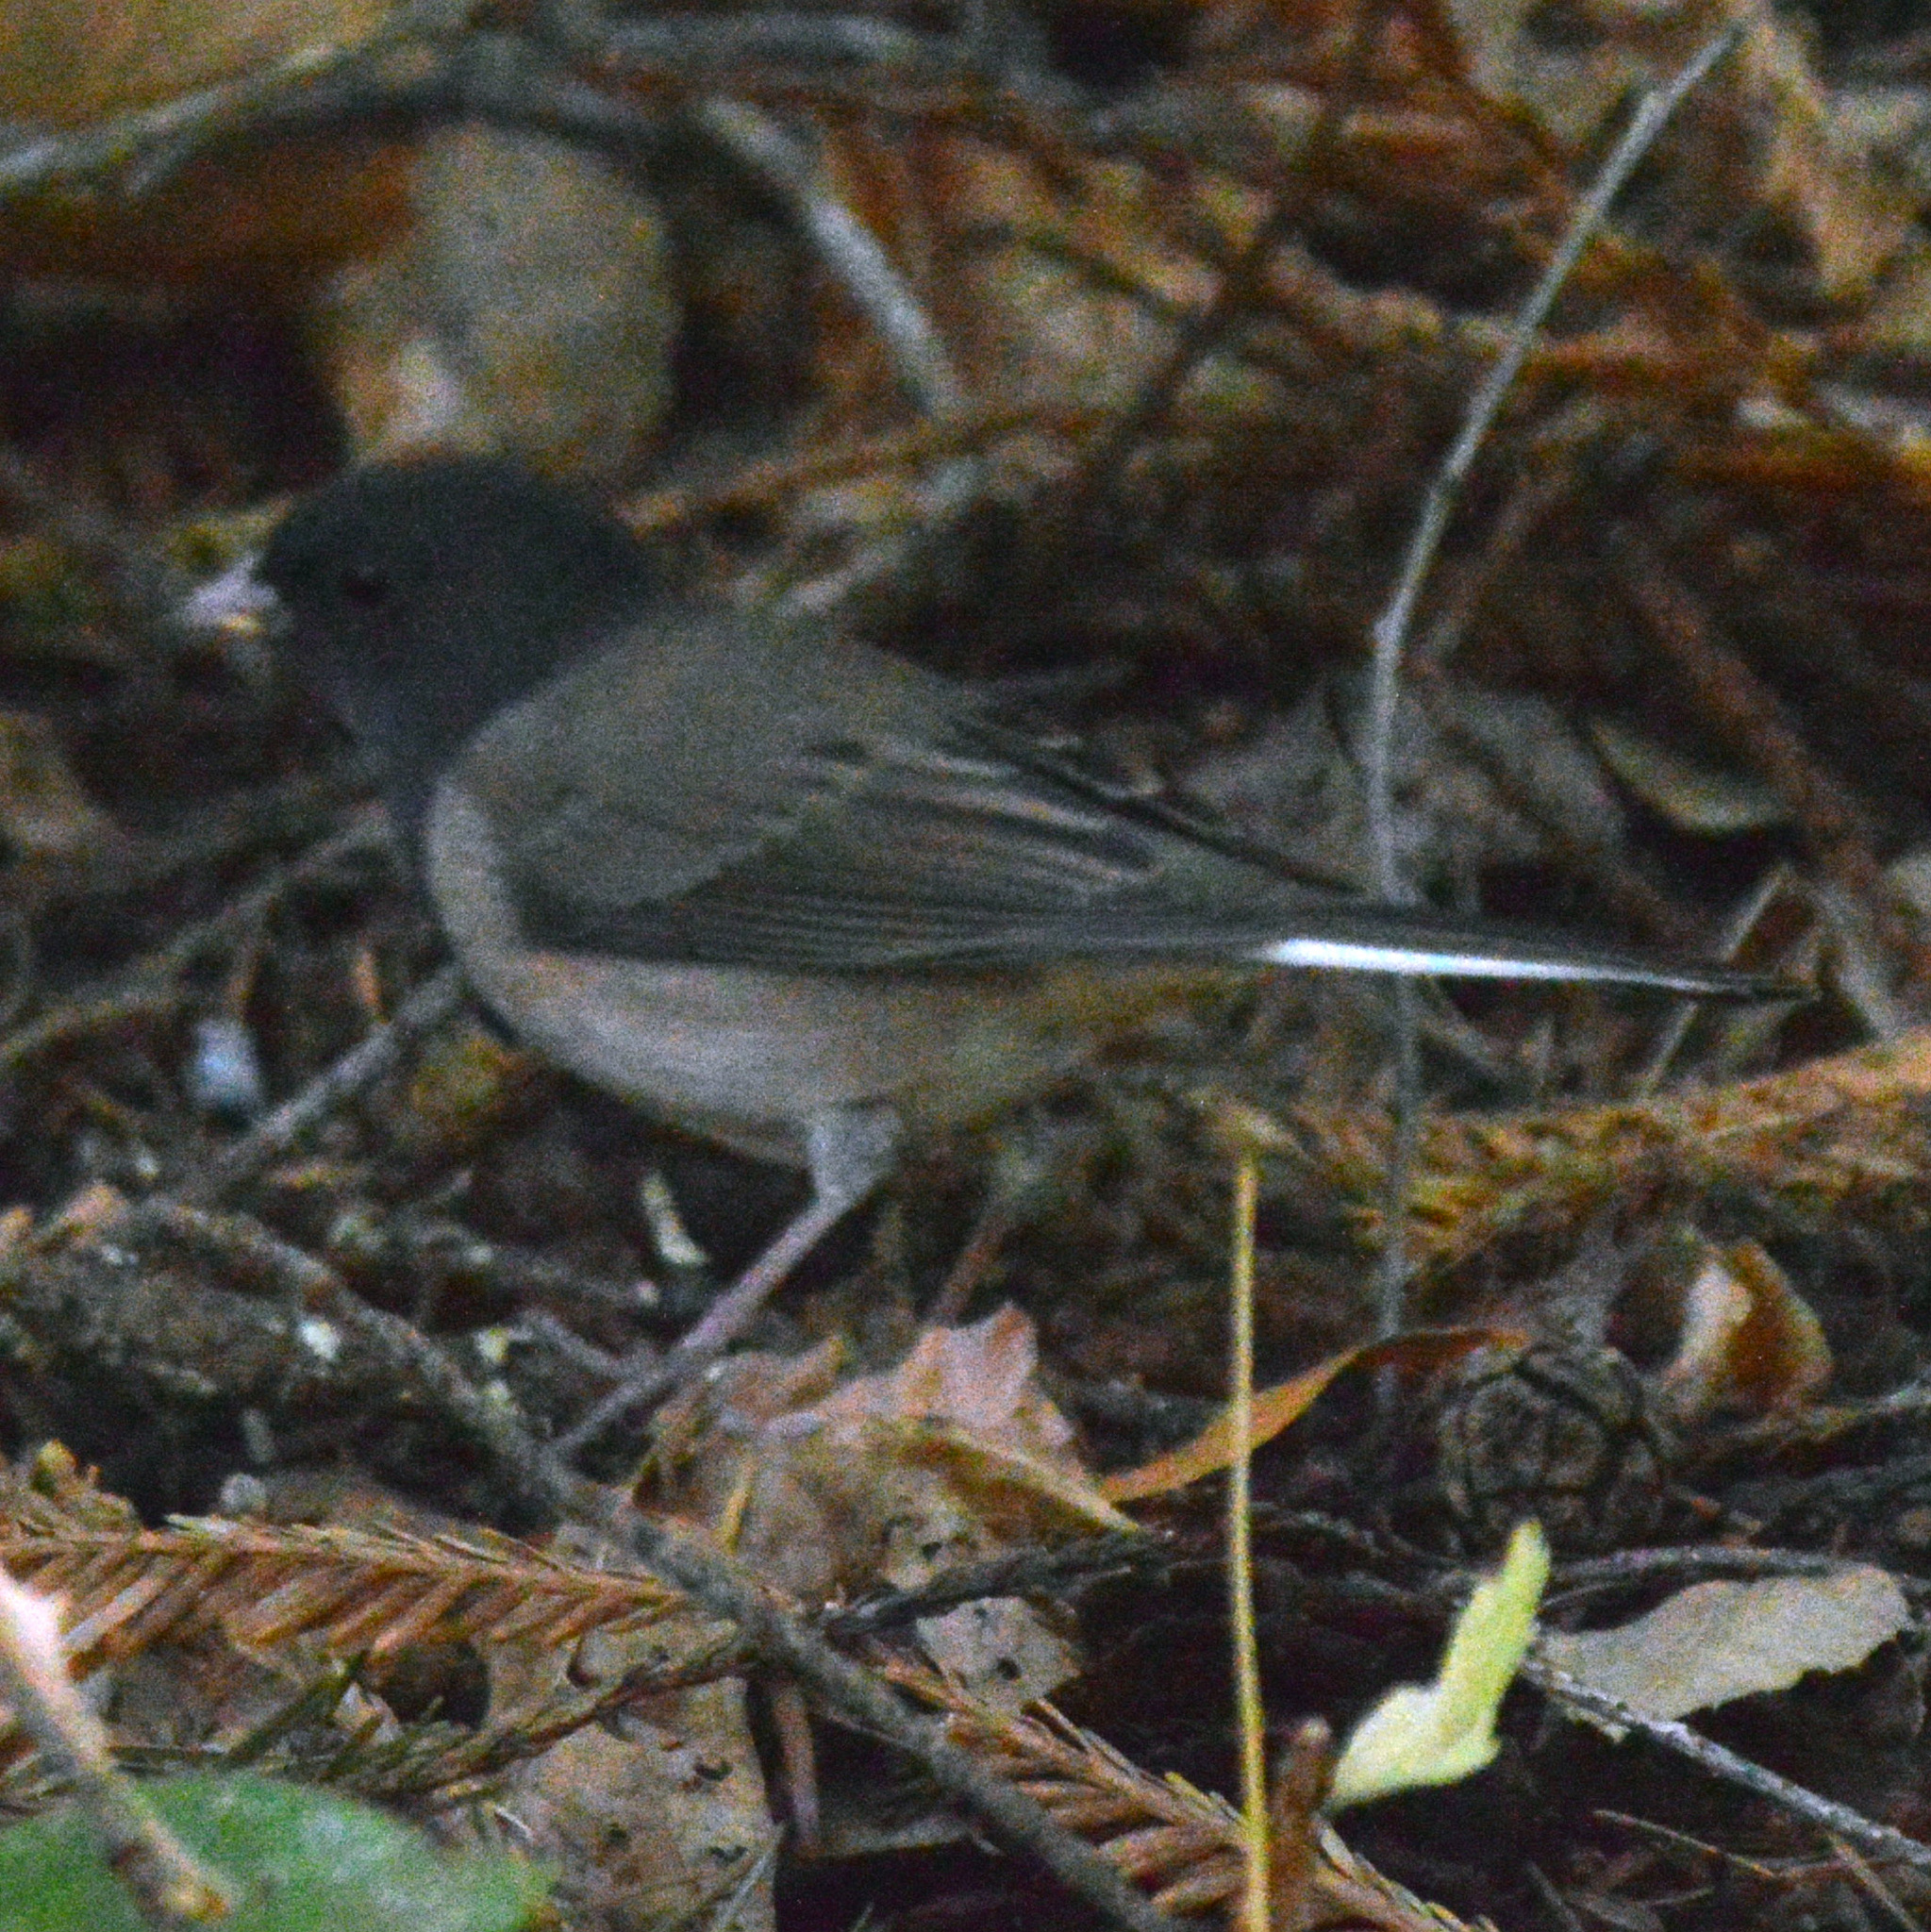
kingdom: Animalia
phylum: Chordata
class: Aves
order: Passeriformes
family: Passerellidae
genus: Junco
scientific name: Junco hyemalis
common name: Dark-eyed junco
